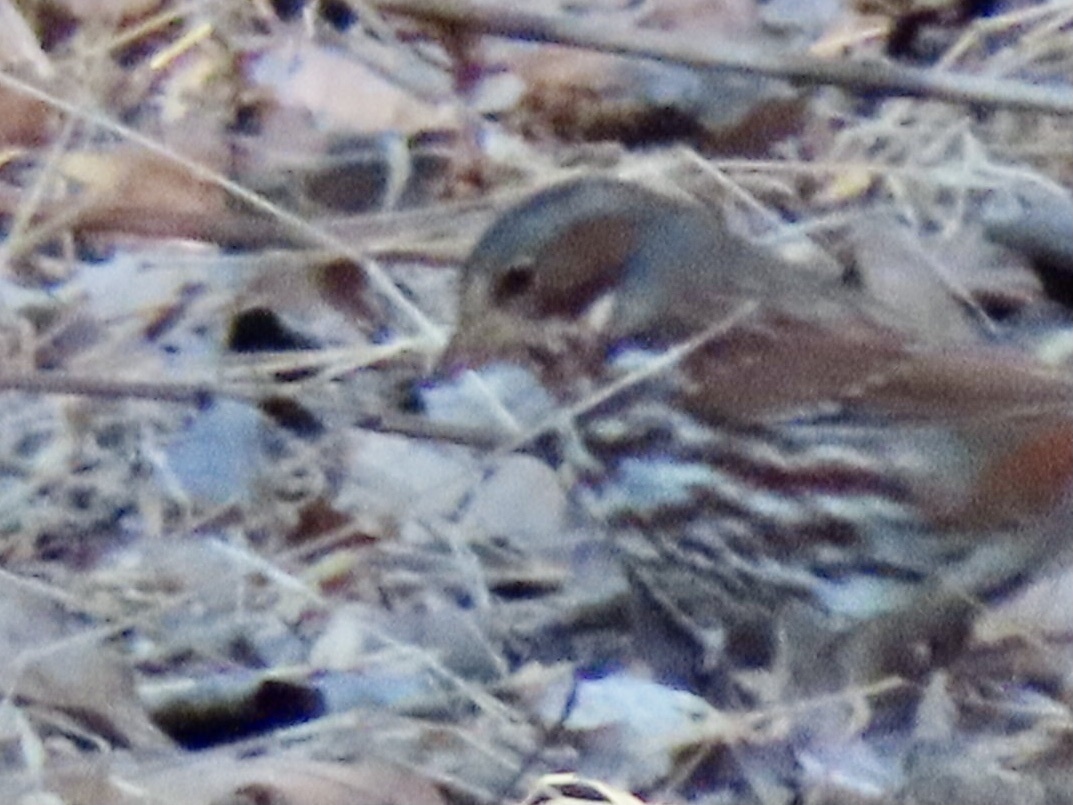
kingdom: Animalia
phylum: Chordata
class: Aves
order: Passeriformes
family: Passerellidae
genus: Passerella
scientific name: Passerella iliaca
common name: Fox sparrow
